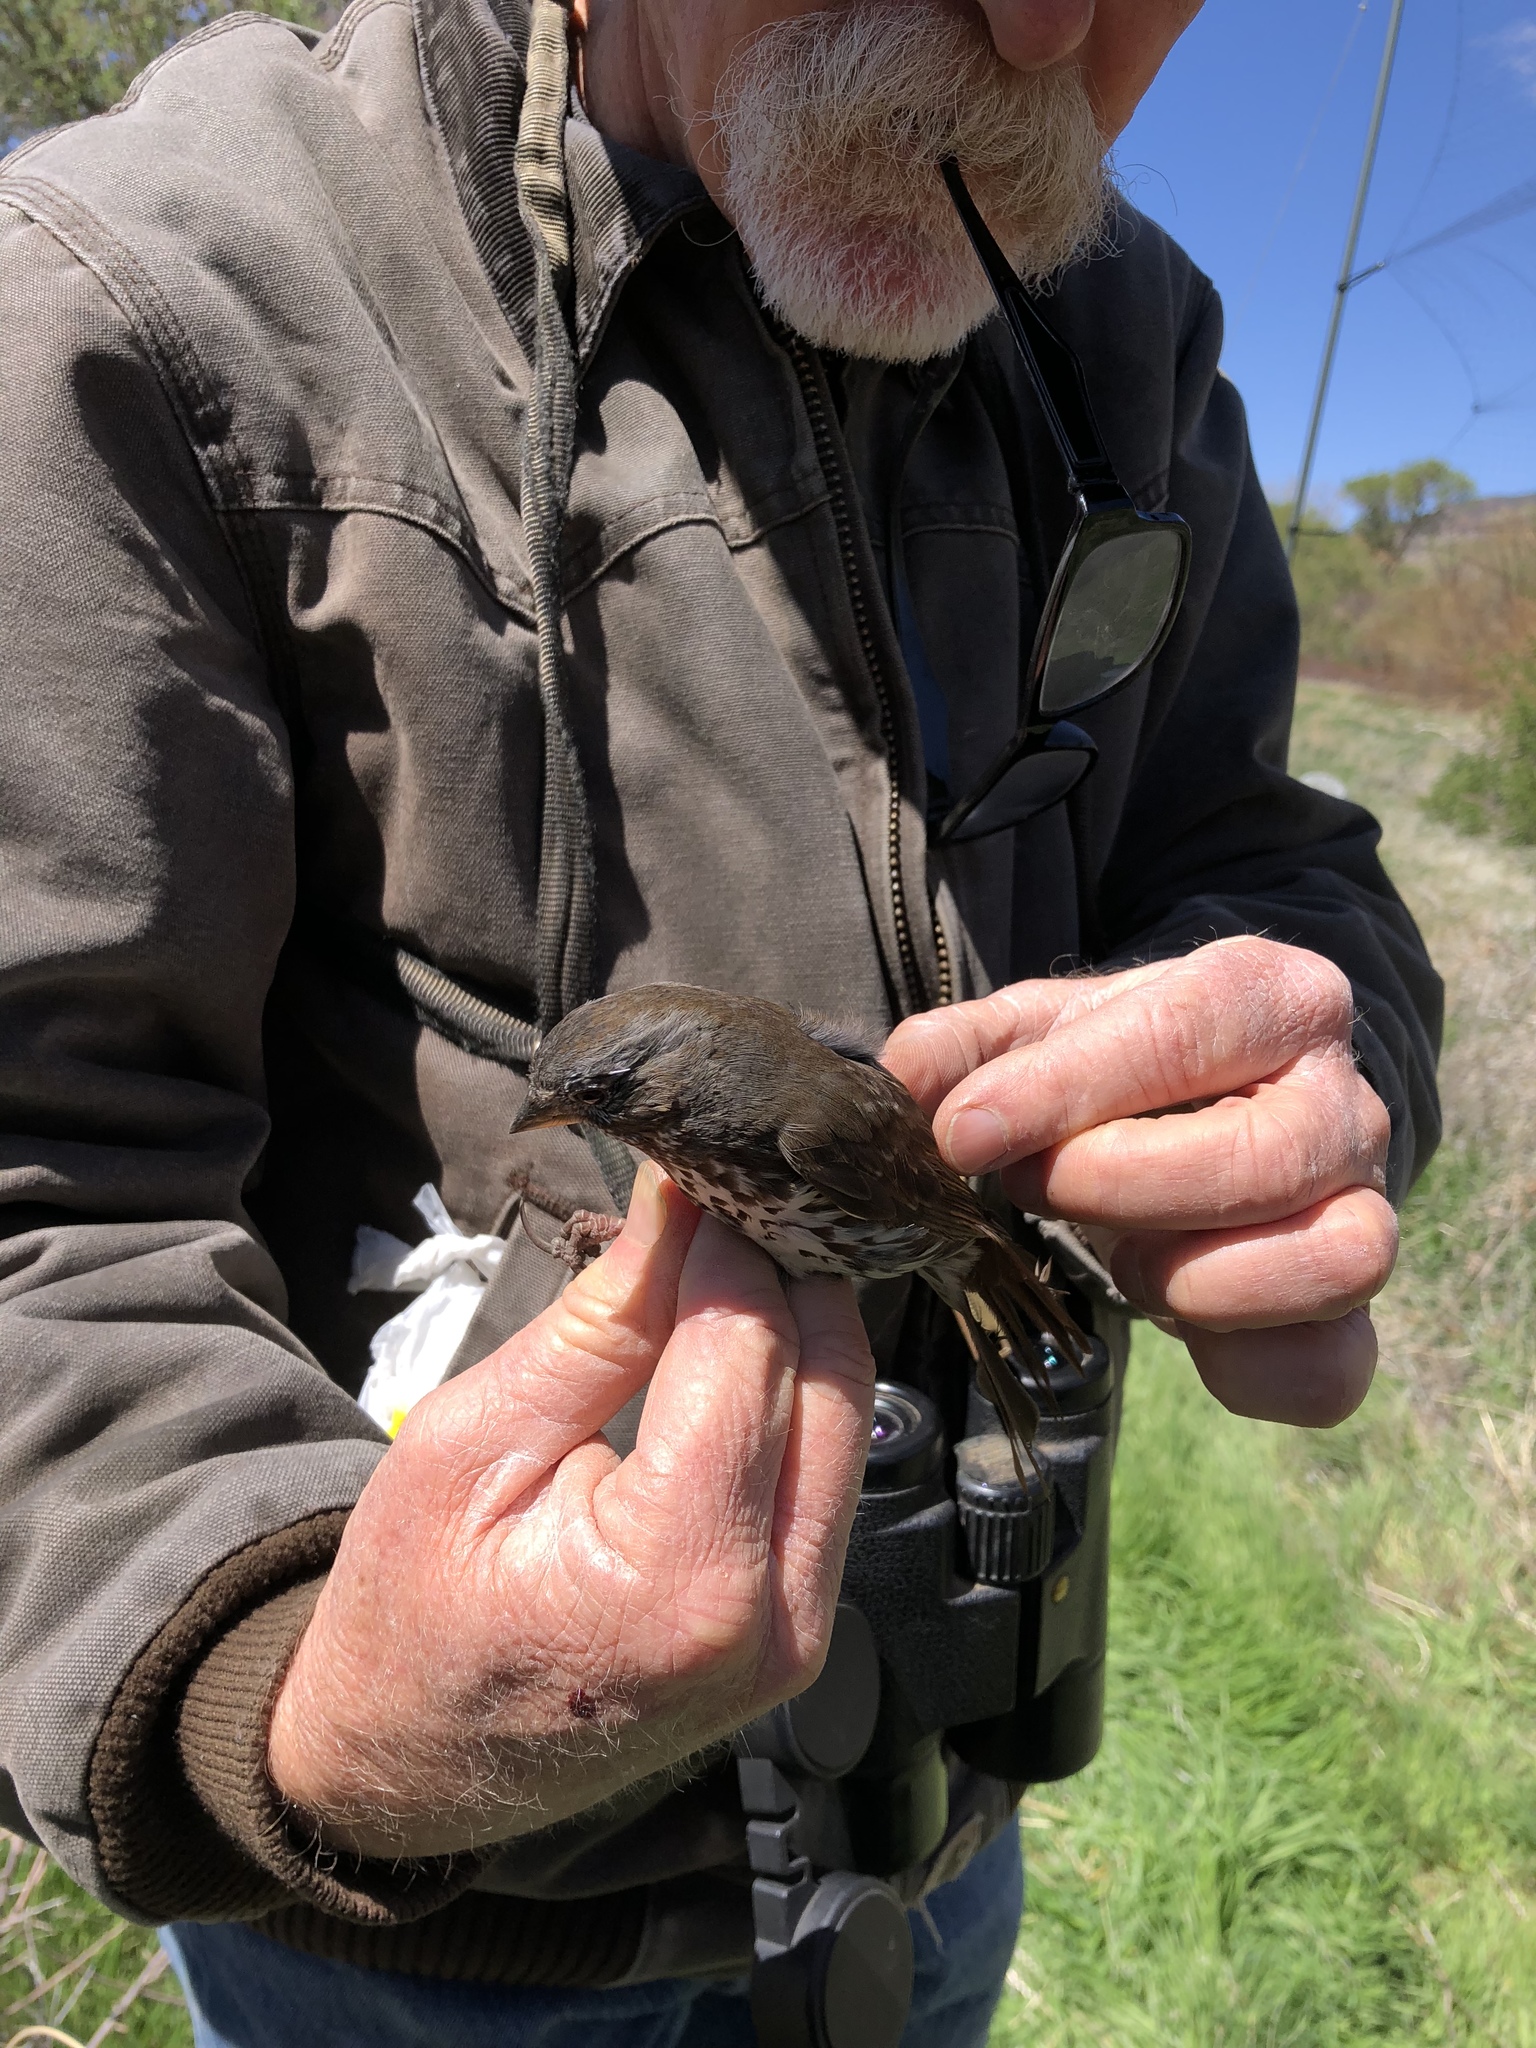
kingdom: Animalia
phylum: Chordata
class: Aves
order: Passeriformes
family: Passerellidae
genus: Passerella
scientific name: Passerella iliaca
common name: Fox sparrow
